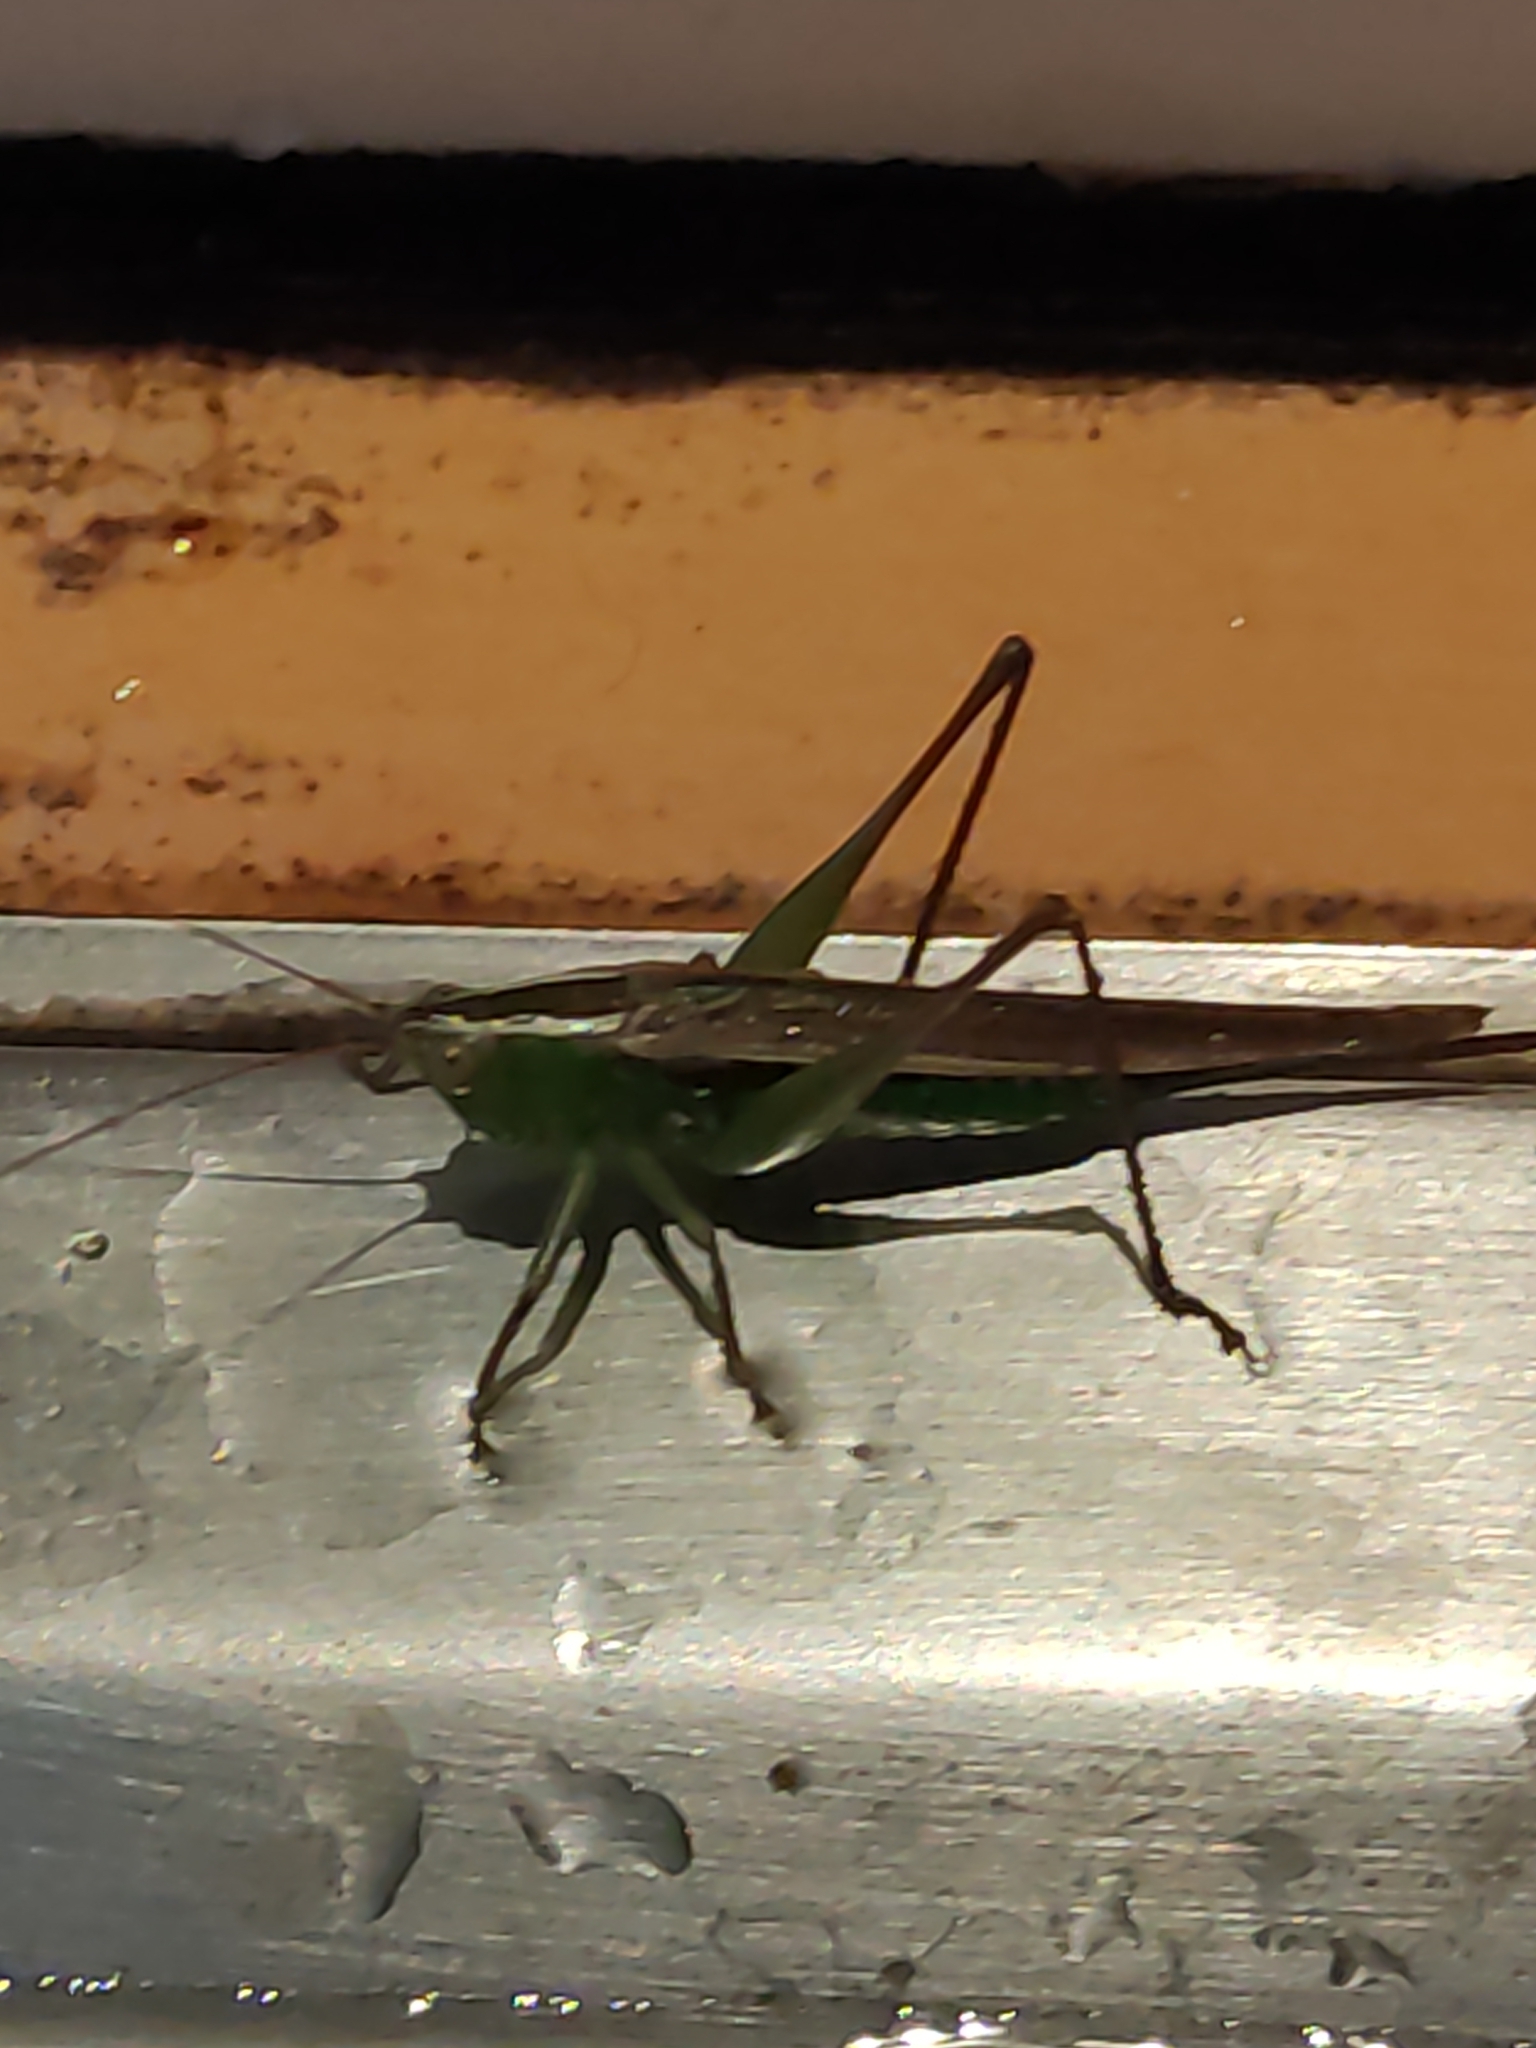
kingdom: Animalia
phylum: Arthropoda
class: Insecta
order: Orthoptera
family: Tettigoniidae
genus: Conocephalus
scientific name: Conocephalus albescens
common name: Whitish meadow katydid
